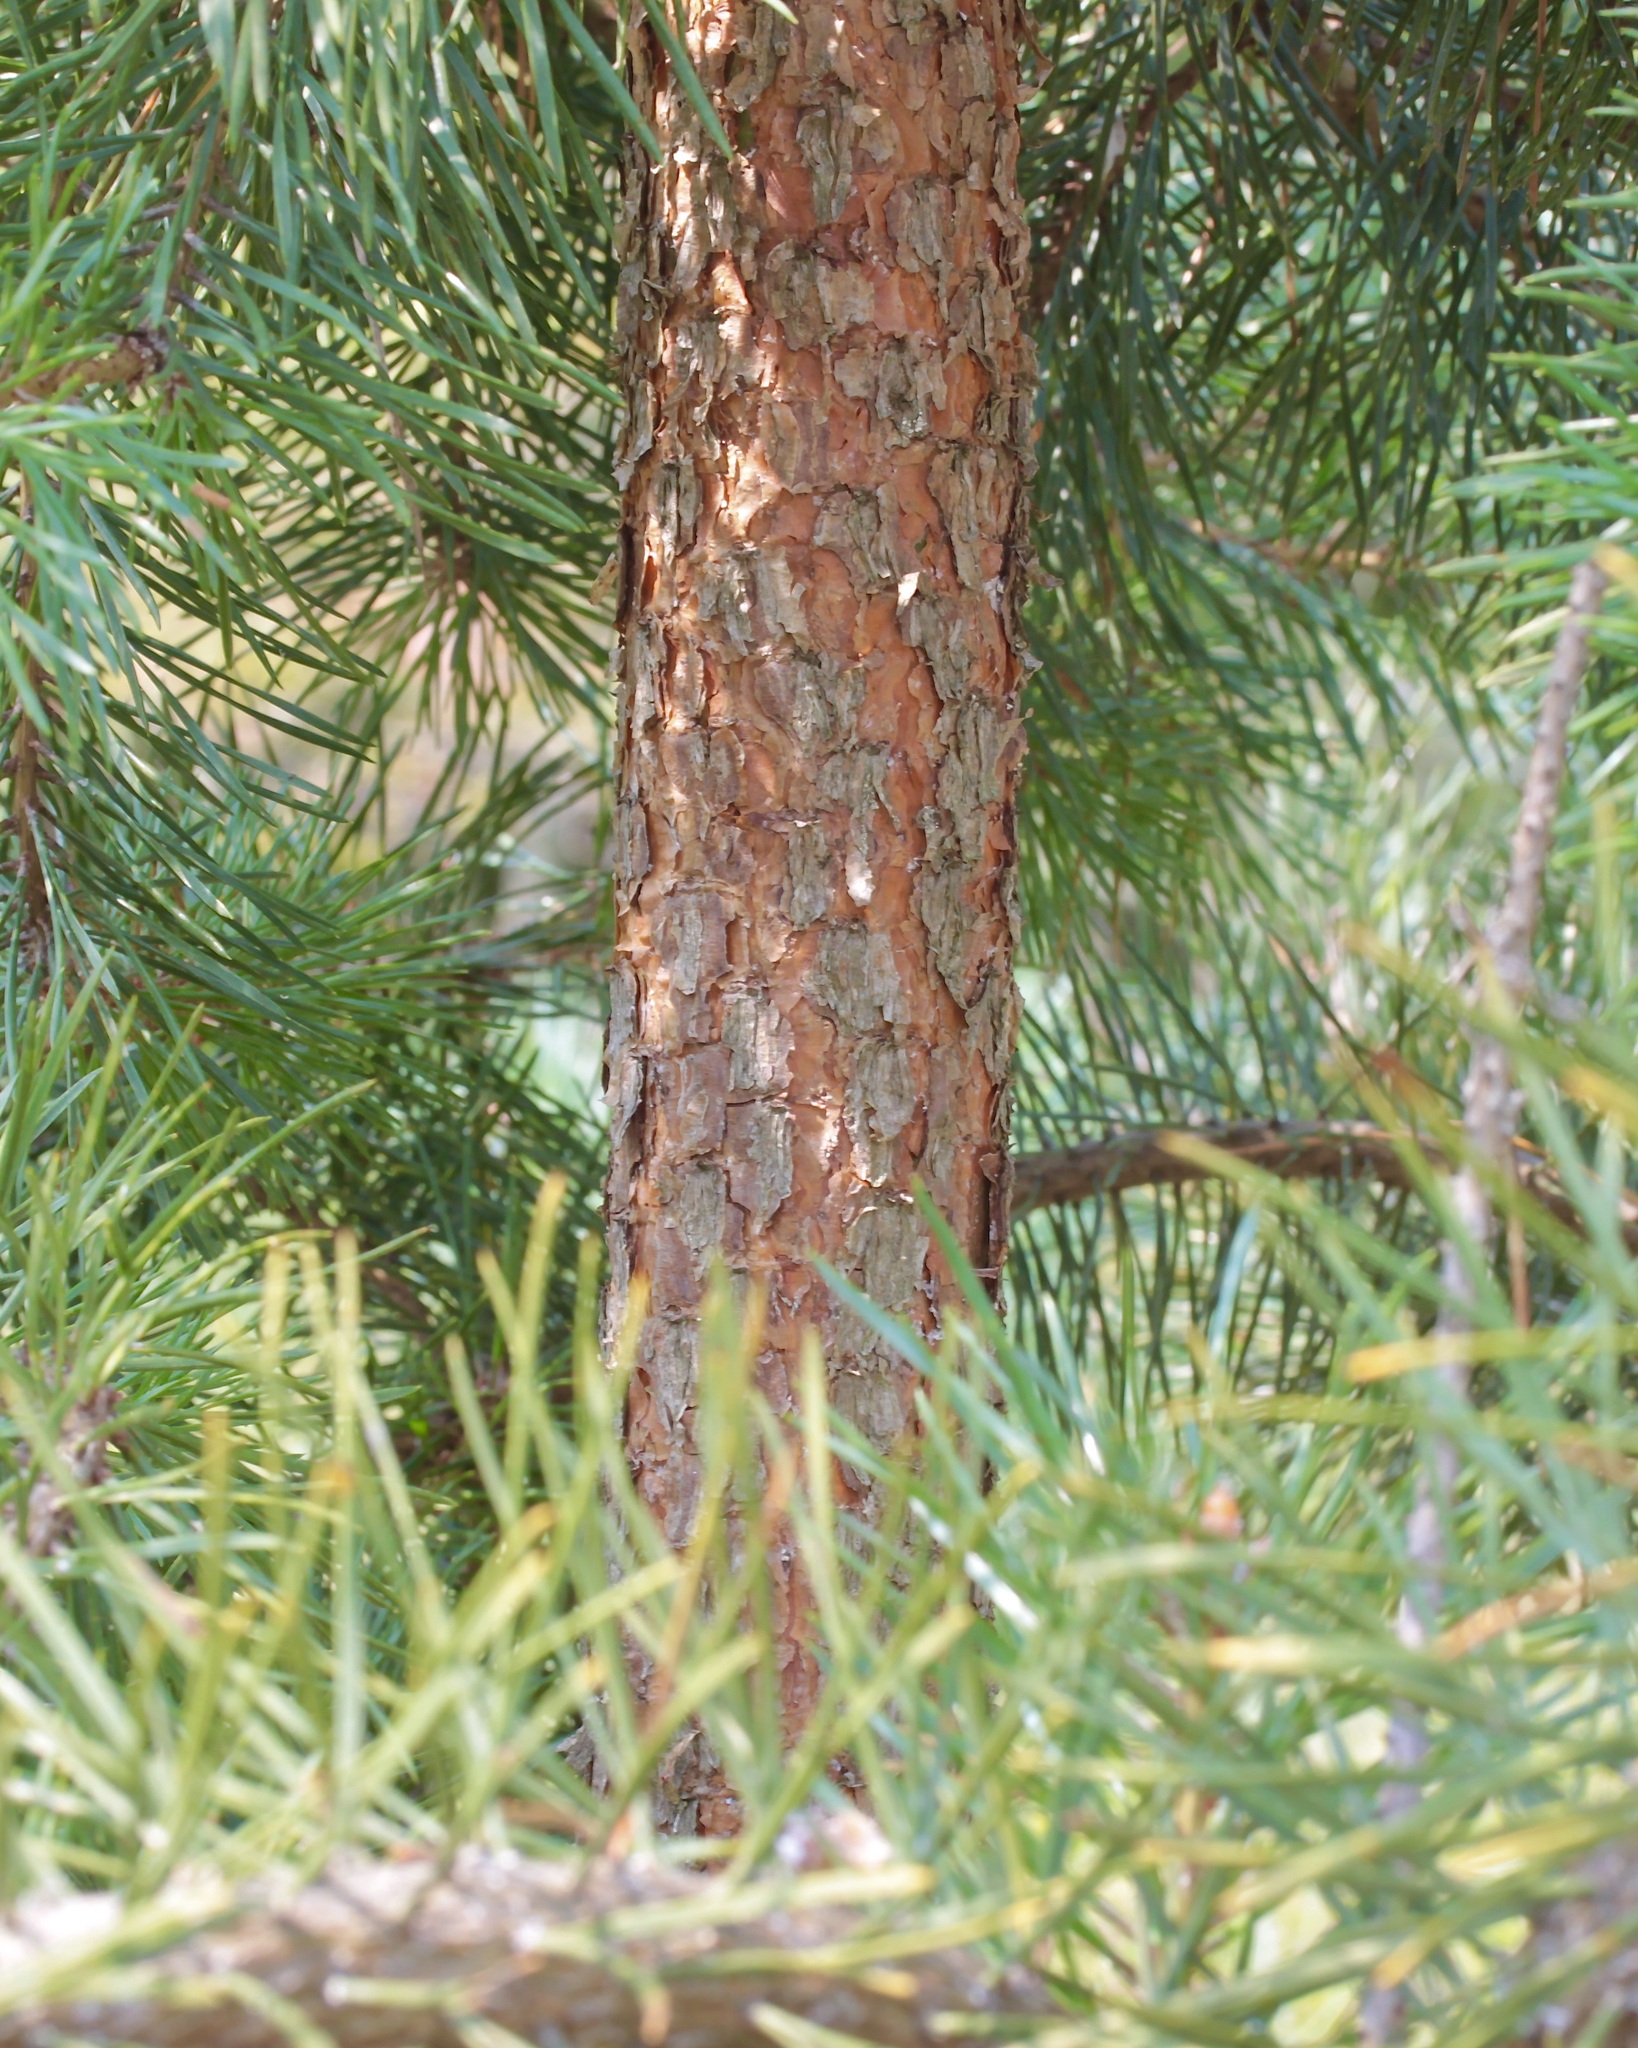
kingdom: Plantae
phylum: Tracheophyta
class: Pinopsida
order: Pinales
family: Pinaceae
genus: Pinus
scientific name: Pinus sylvestris
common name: Scots pine
